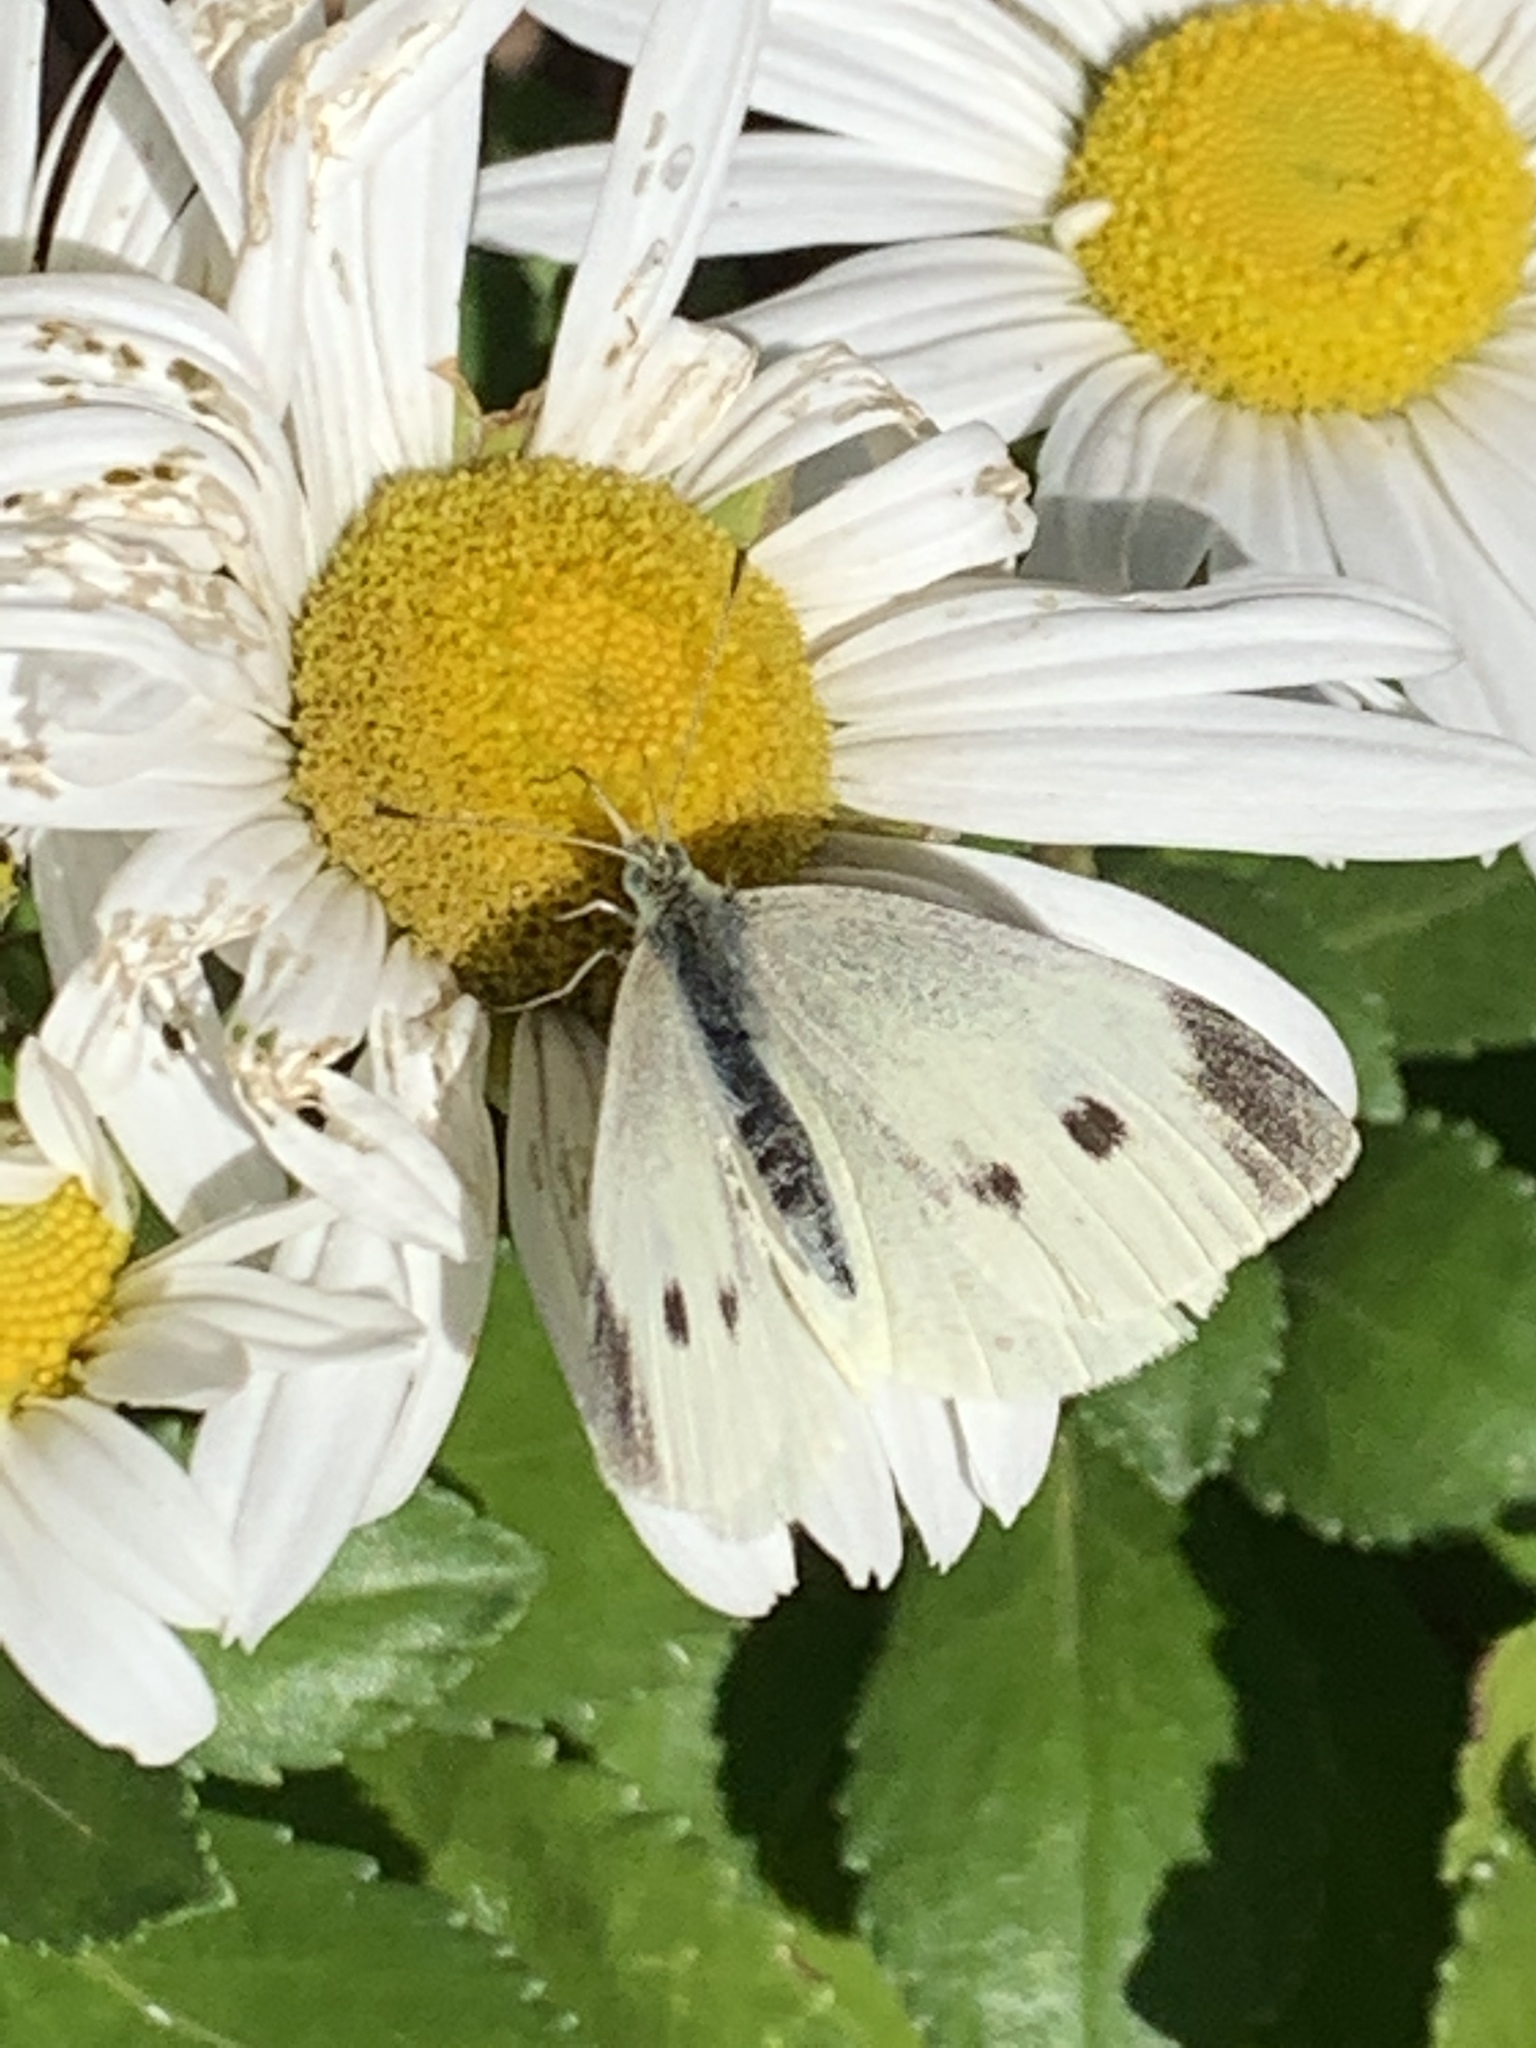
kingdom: Animalia
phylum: Arthropoda
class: Insecta
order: Lepidoptera
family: Pieridae
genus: Pieris
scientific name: Pieris rapae
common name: Small white
